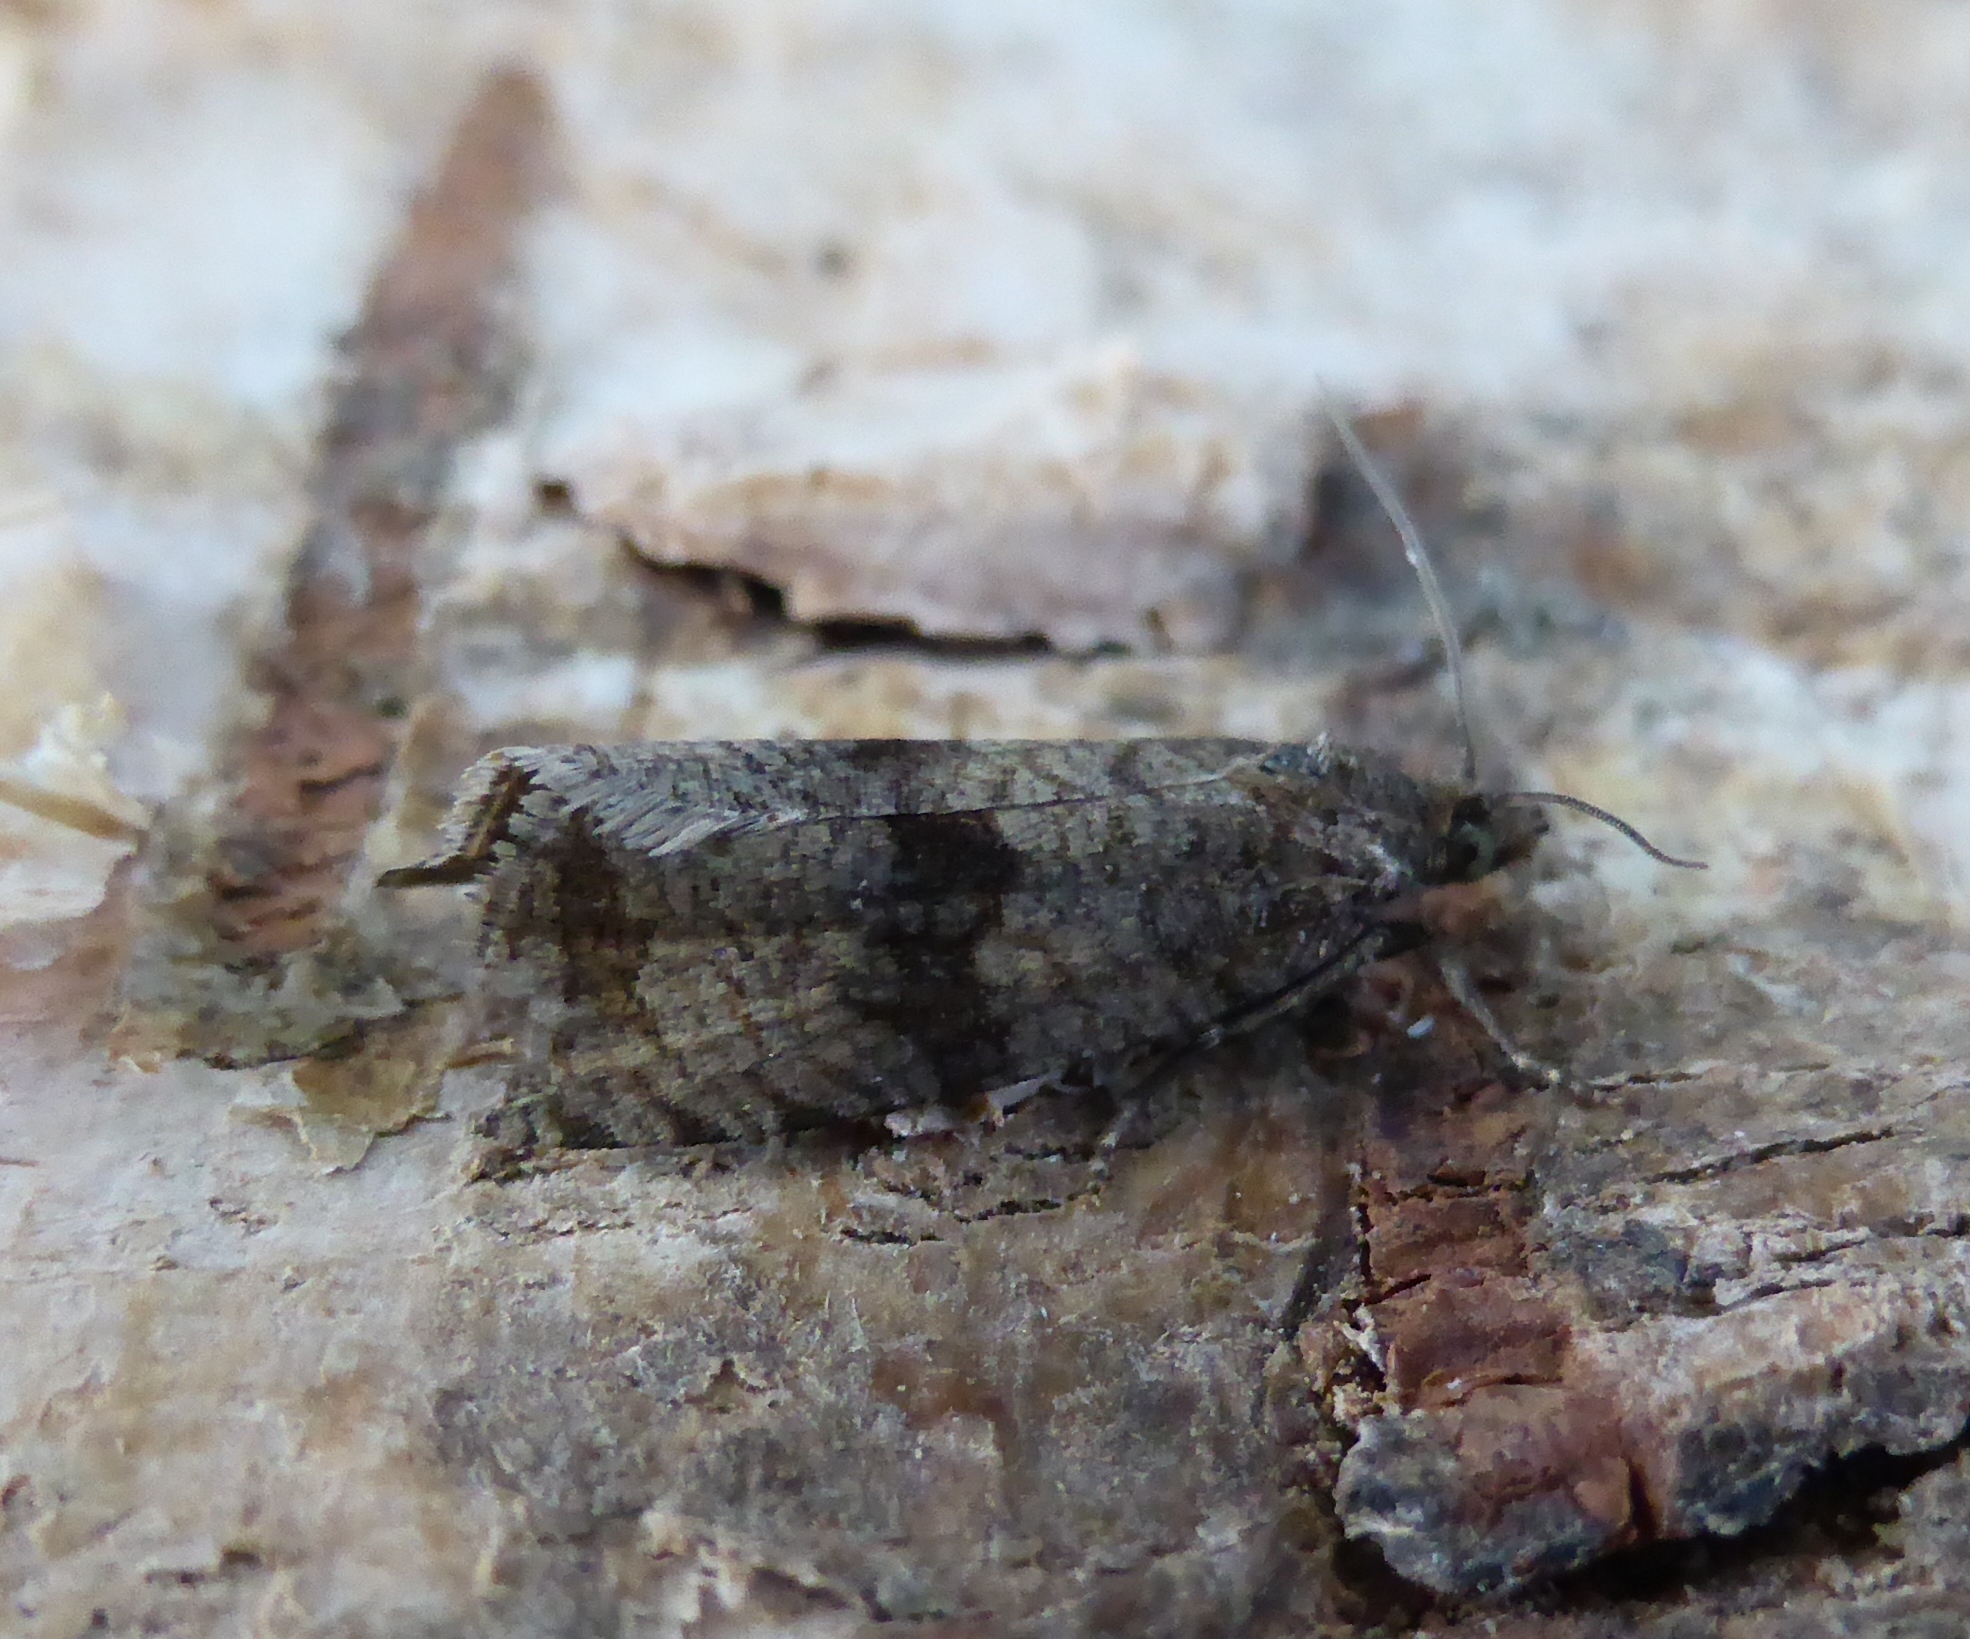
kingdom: Animalia
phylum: Arthropoda
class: Insecta
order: Lepidoptera
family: Tortricidae
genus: Celypha
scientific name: Celypha striana
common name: Barred marble
